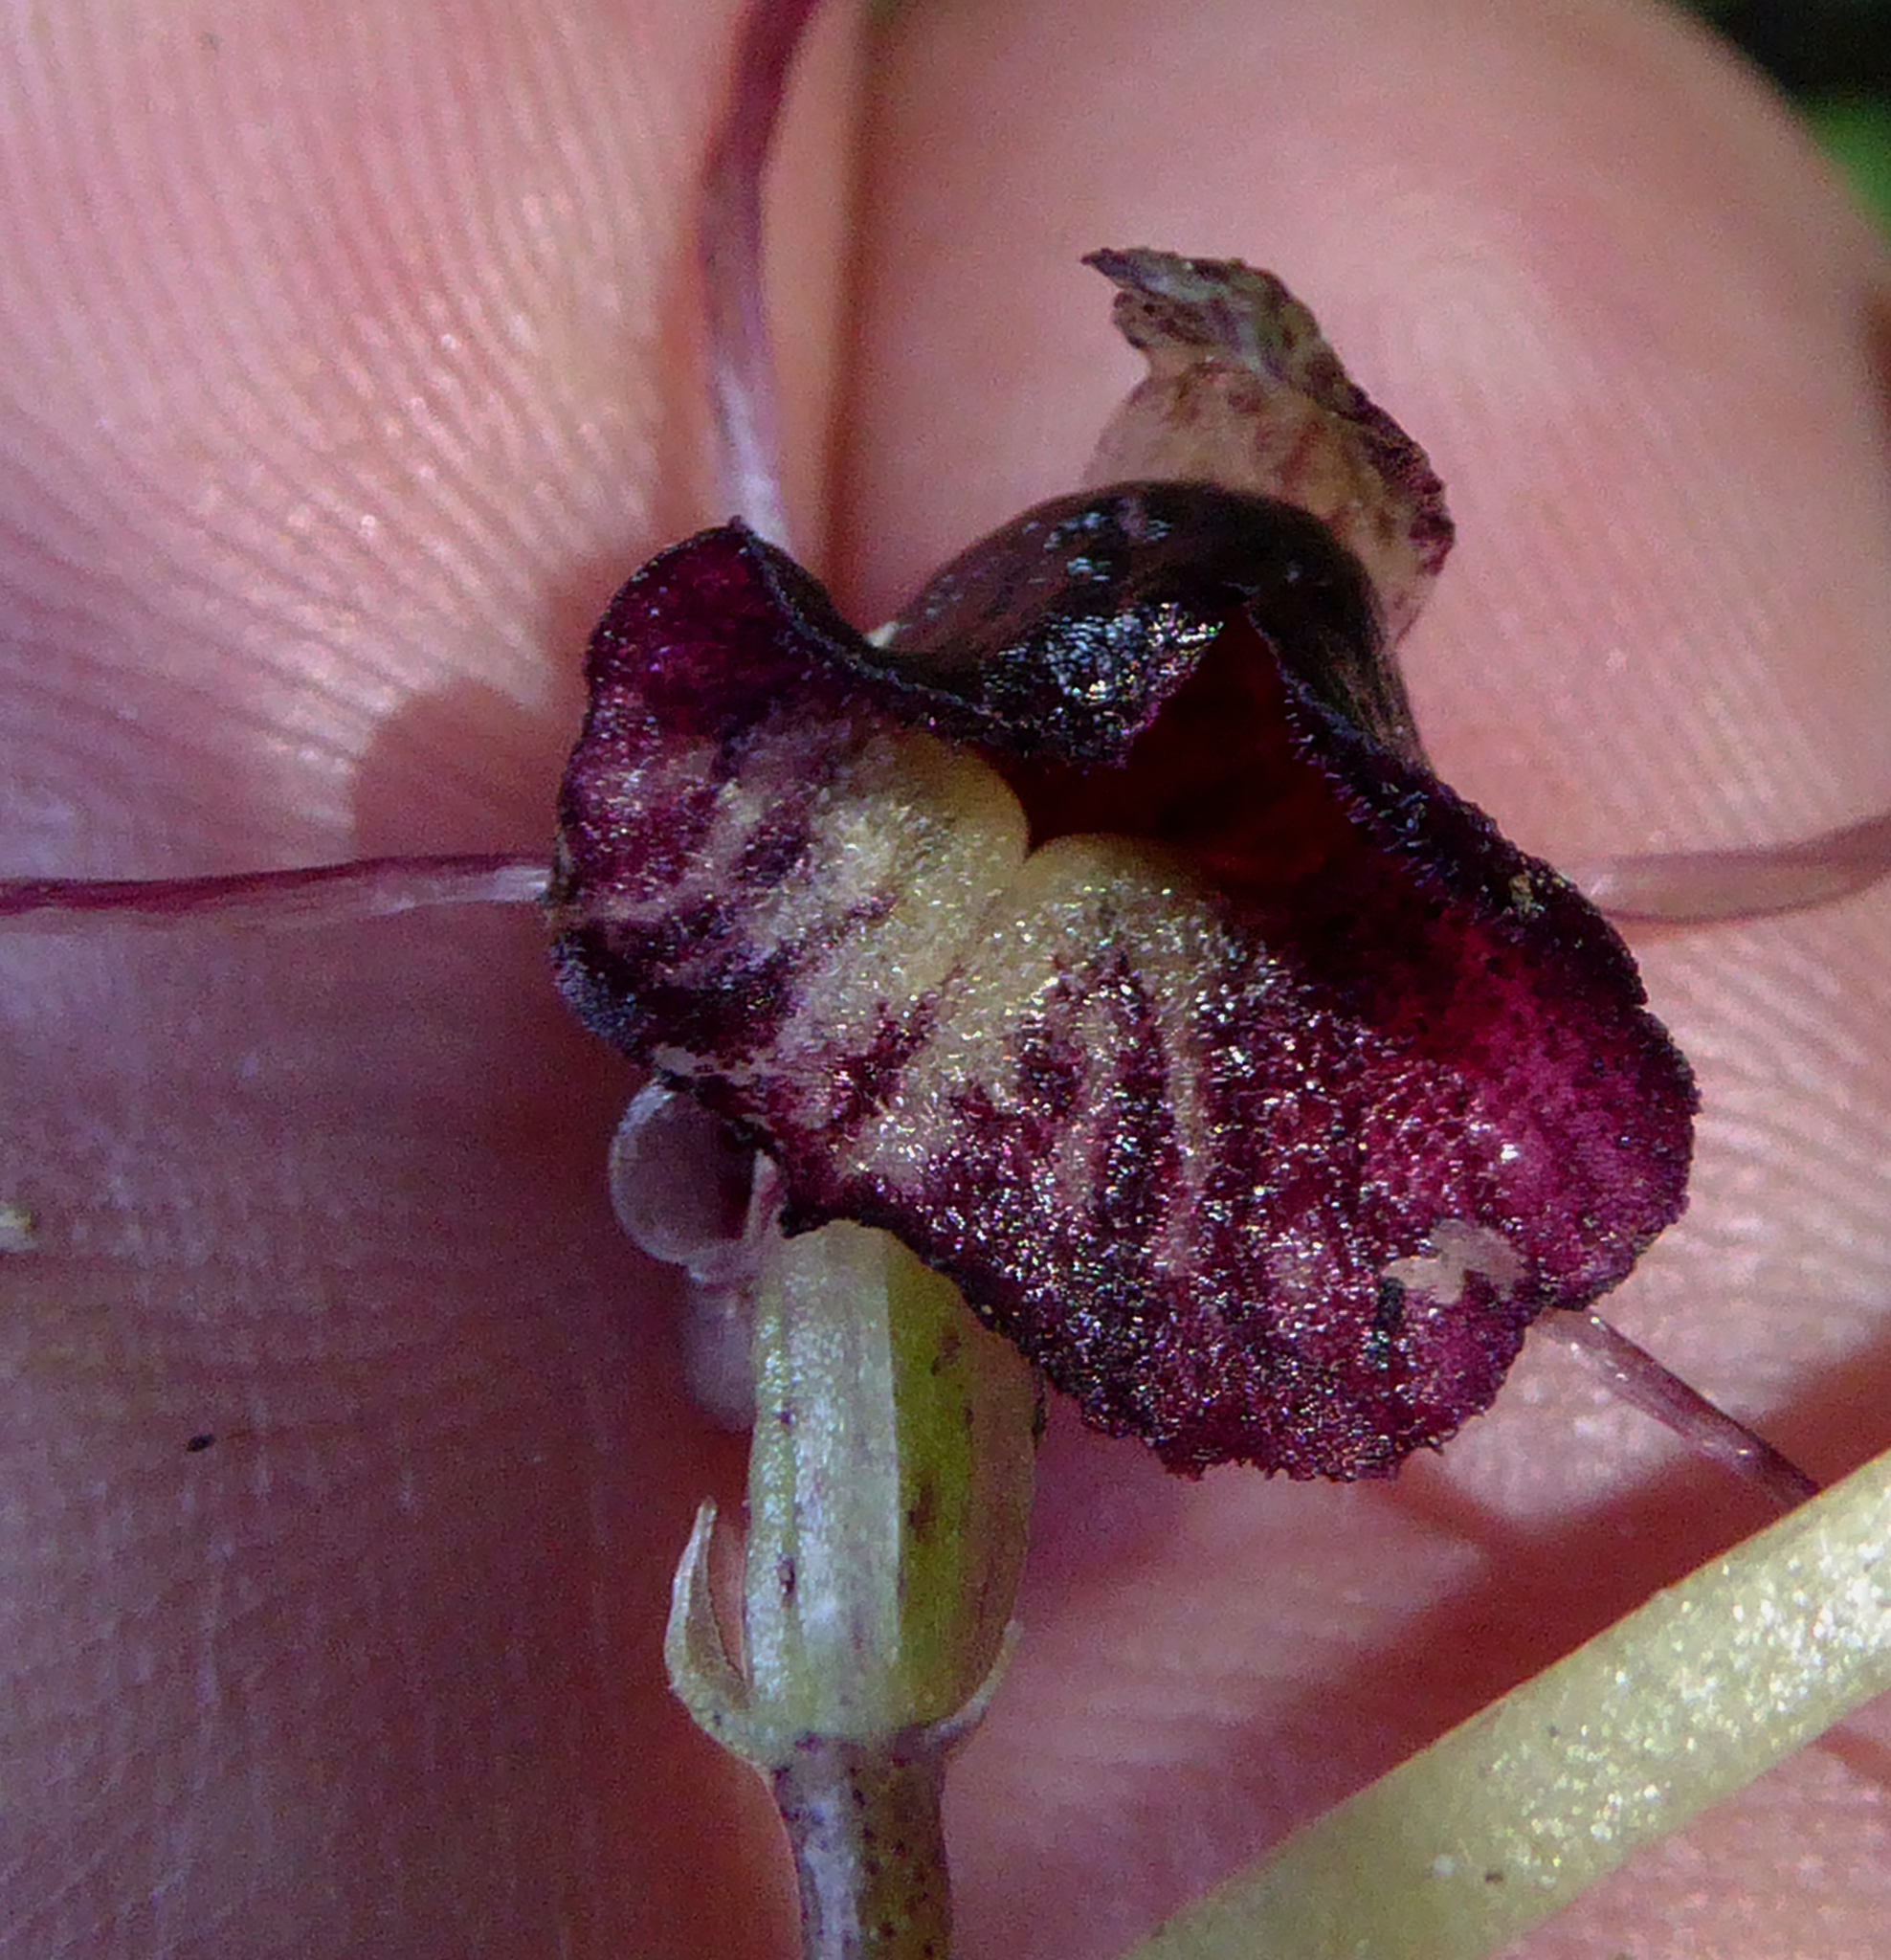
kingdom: Plantae
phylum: Tracheophyta
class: Liliopsida
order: Asparagales
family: Orchidaceae
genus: Corybas
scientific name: Corybas macranthus
